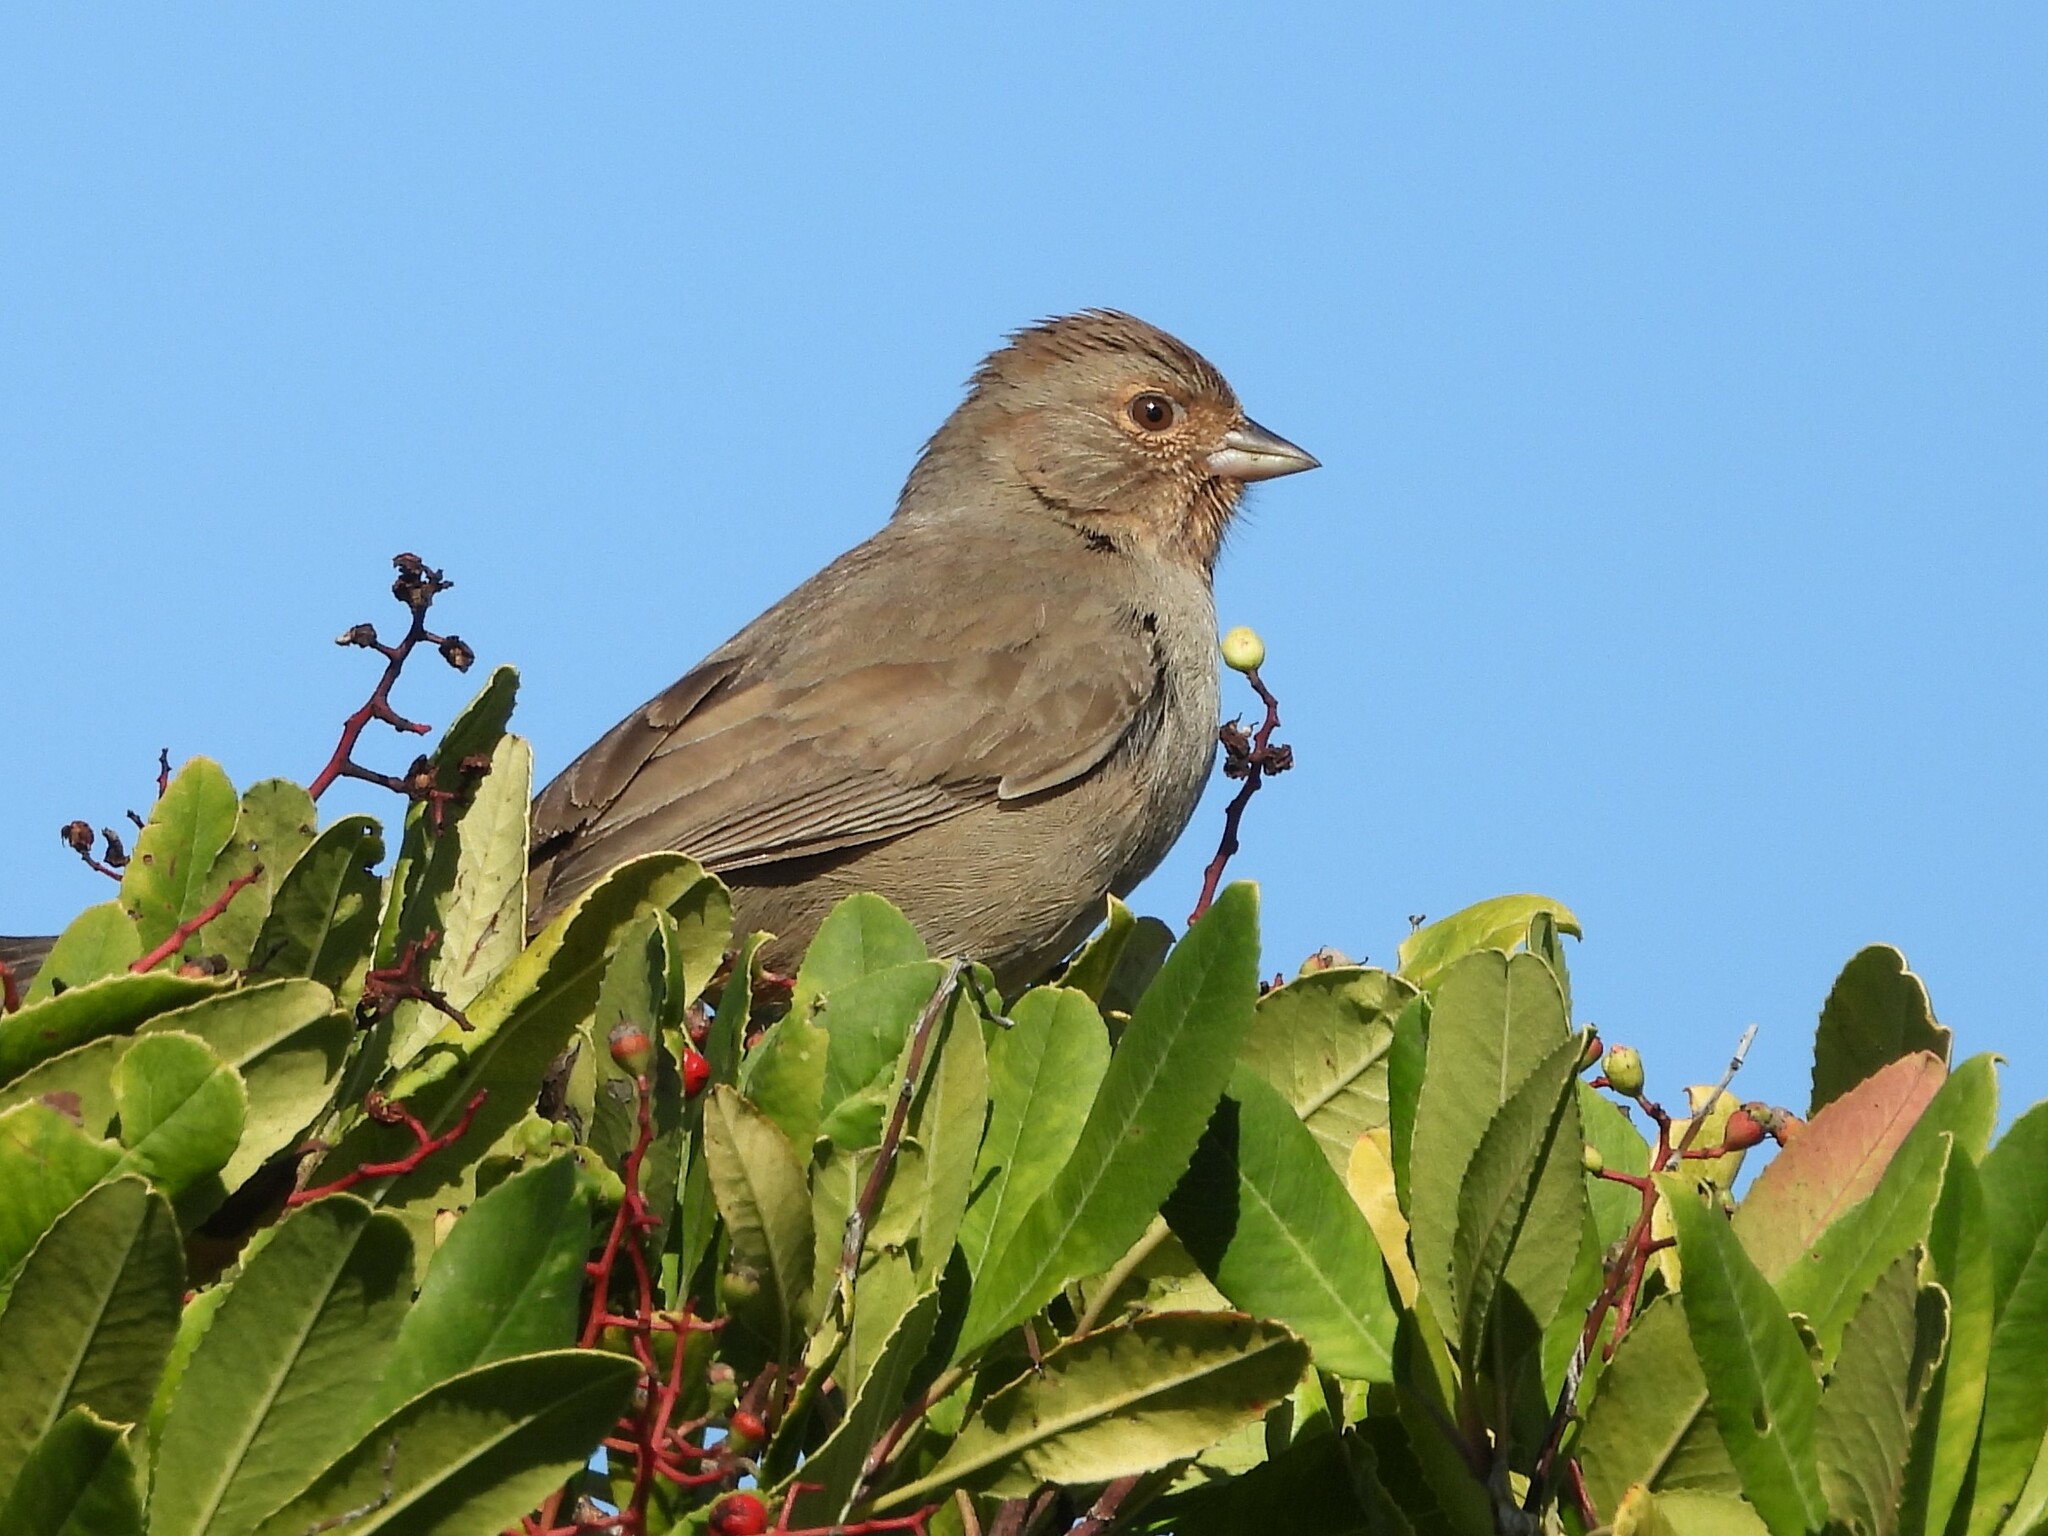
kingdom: Animalia
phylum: Chordata
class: Aves
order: Passeriformes
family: Passerellidae
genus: Melozone
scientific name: Melozone crissalis
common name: California towhee
